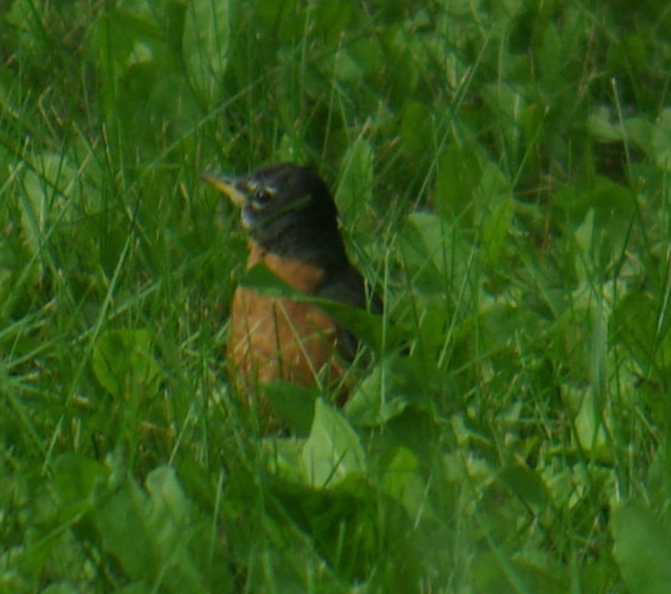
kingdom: Animalia
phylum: Chordata
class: Aves
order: Passeriformes
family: Turdidae
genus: Turdus
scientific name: Turdus migratorius
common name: American robin
